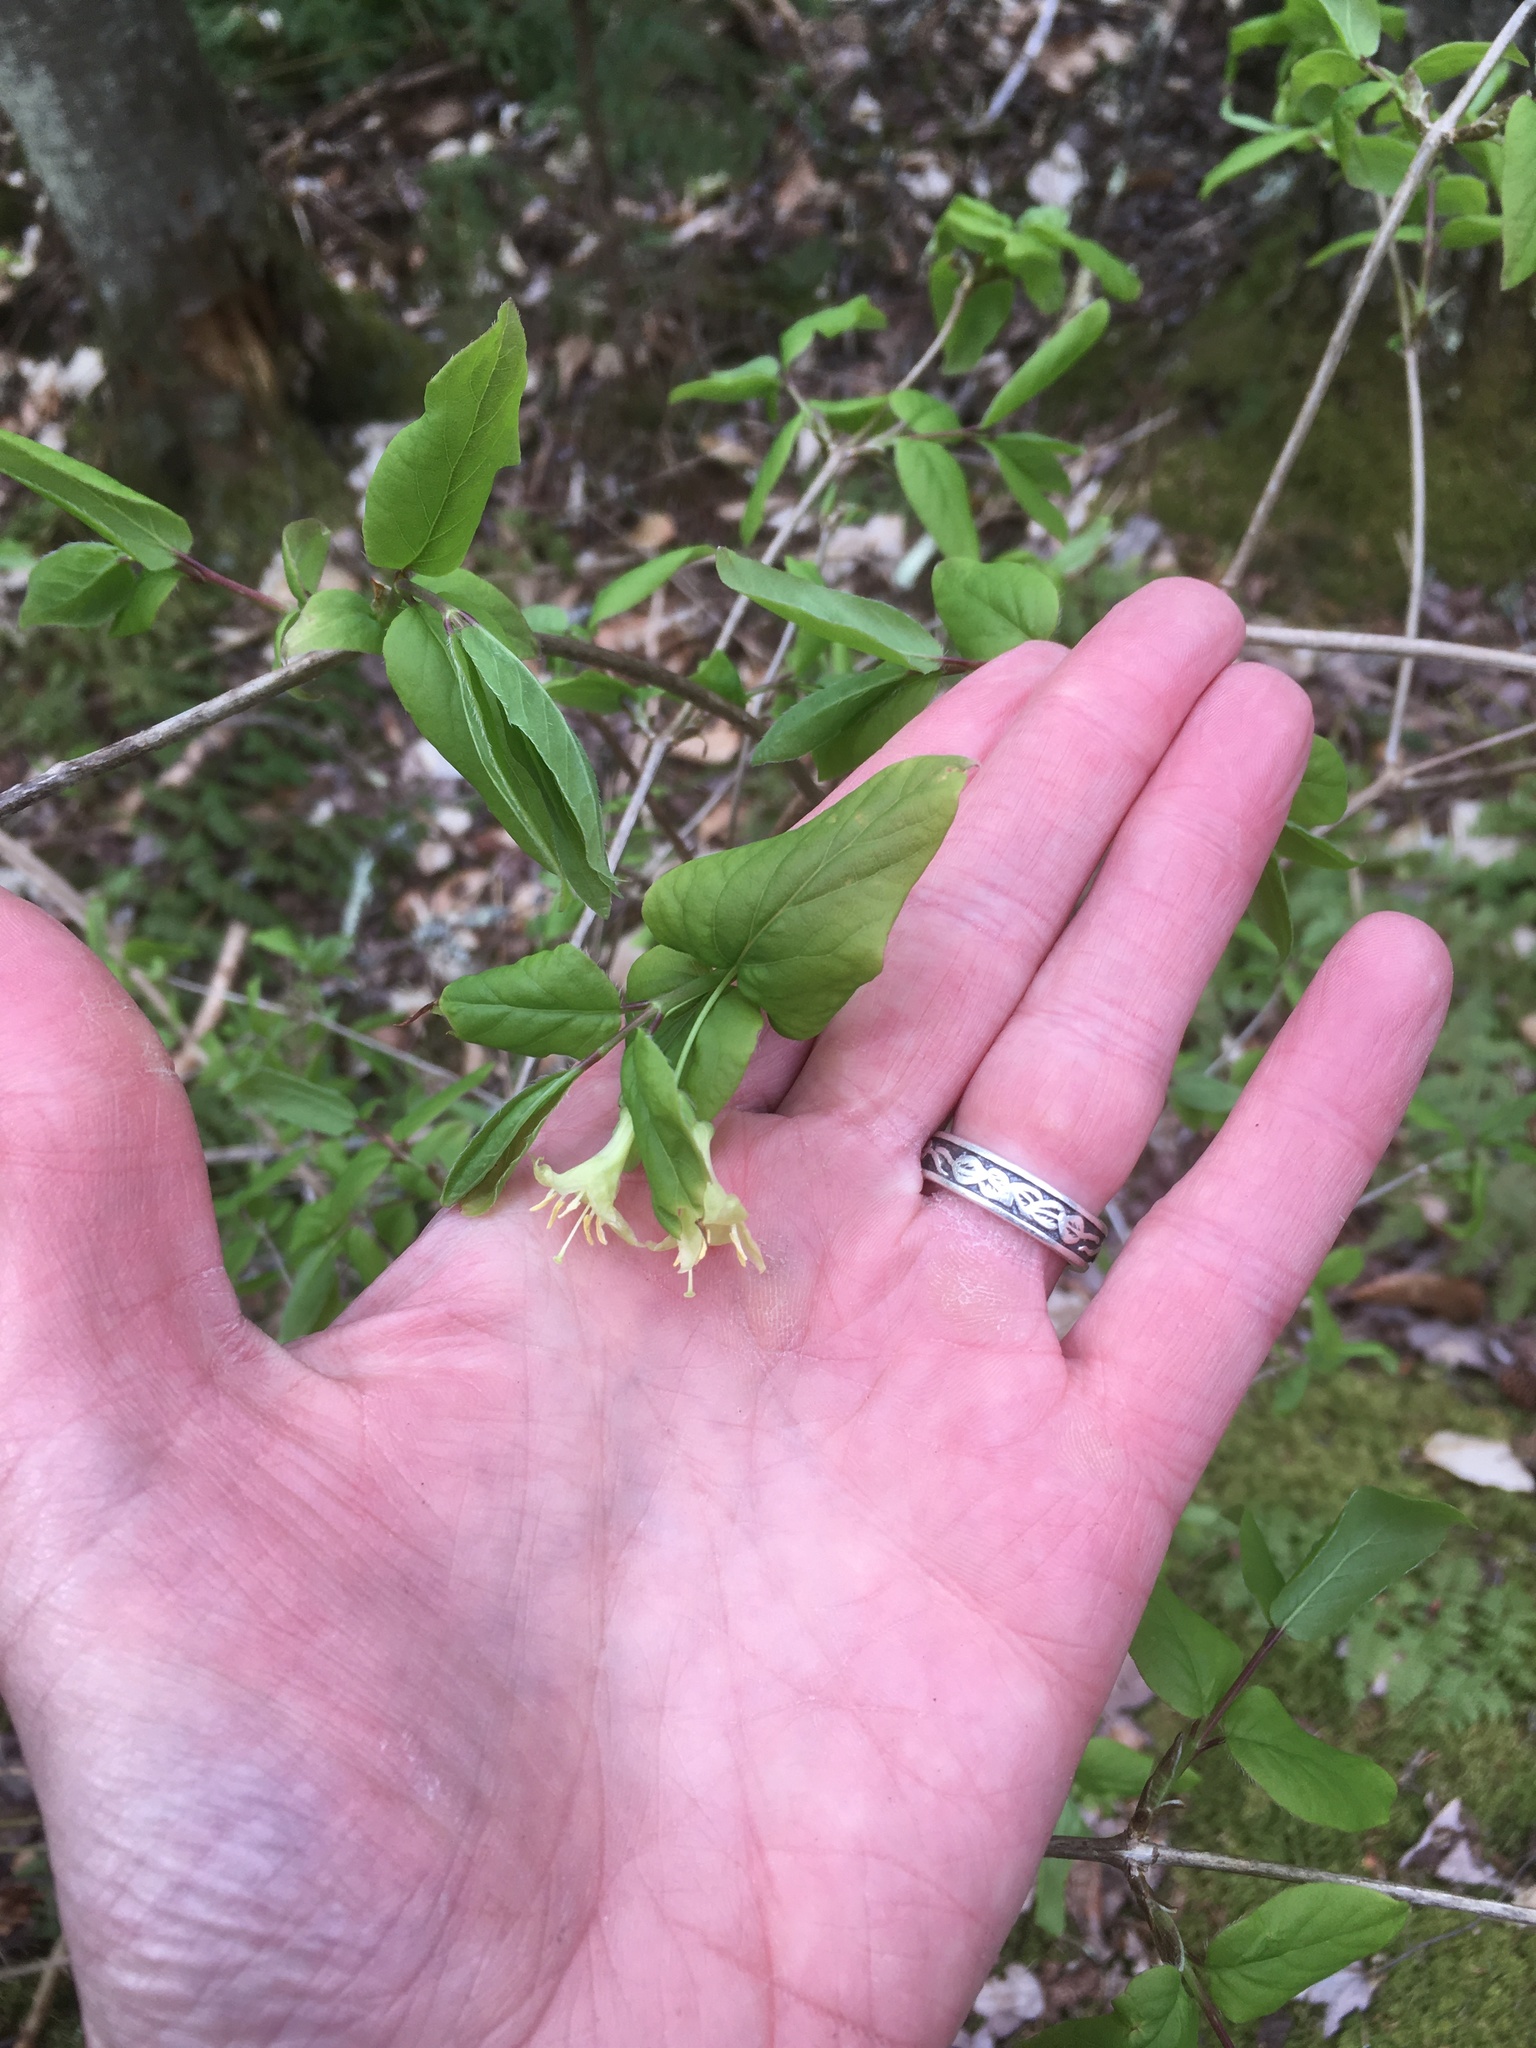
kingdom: Plantae
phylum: Tracheophyta
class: Magnoliopsida
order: Dipsacales
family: Caprifoliaceae
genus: Lonicera
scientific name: Lonicera canadensis
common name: American fly-honeysuckle
